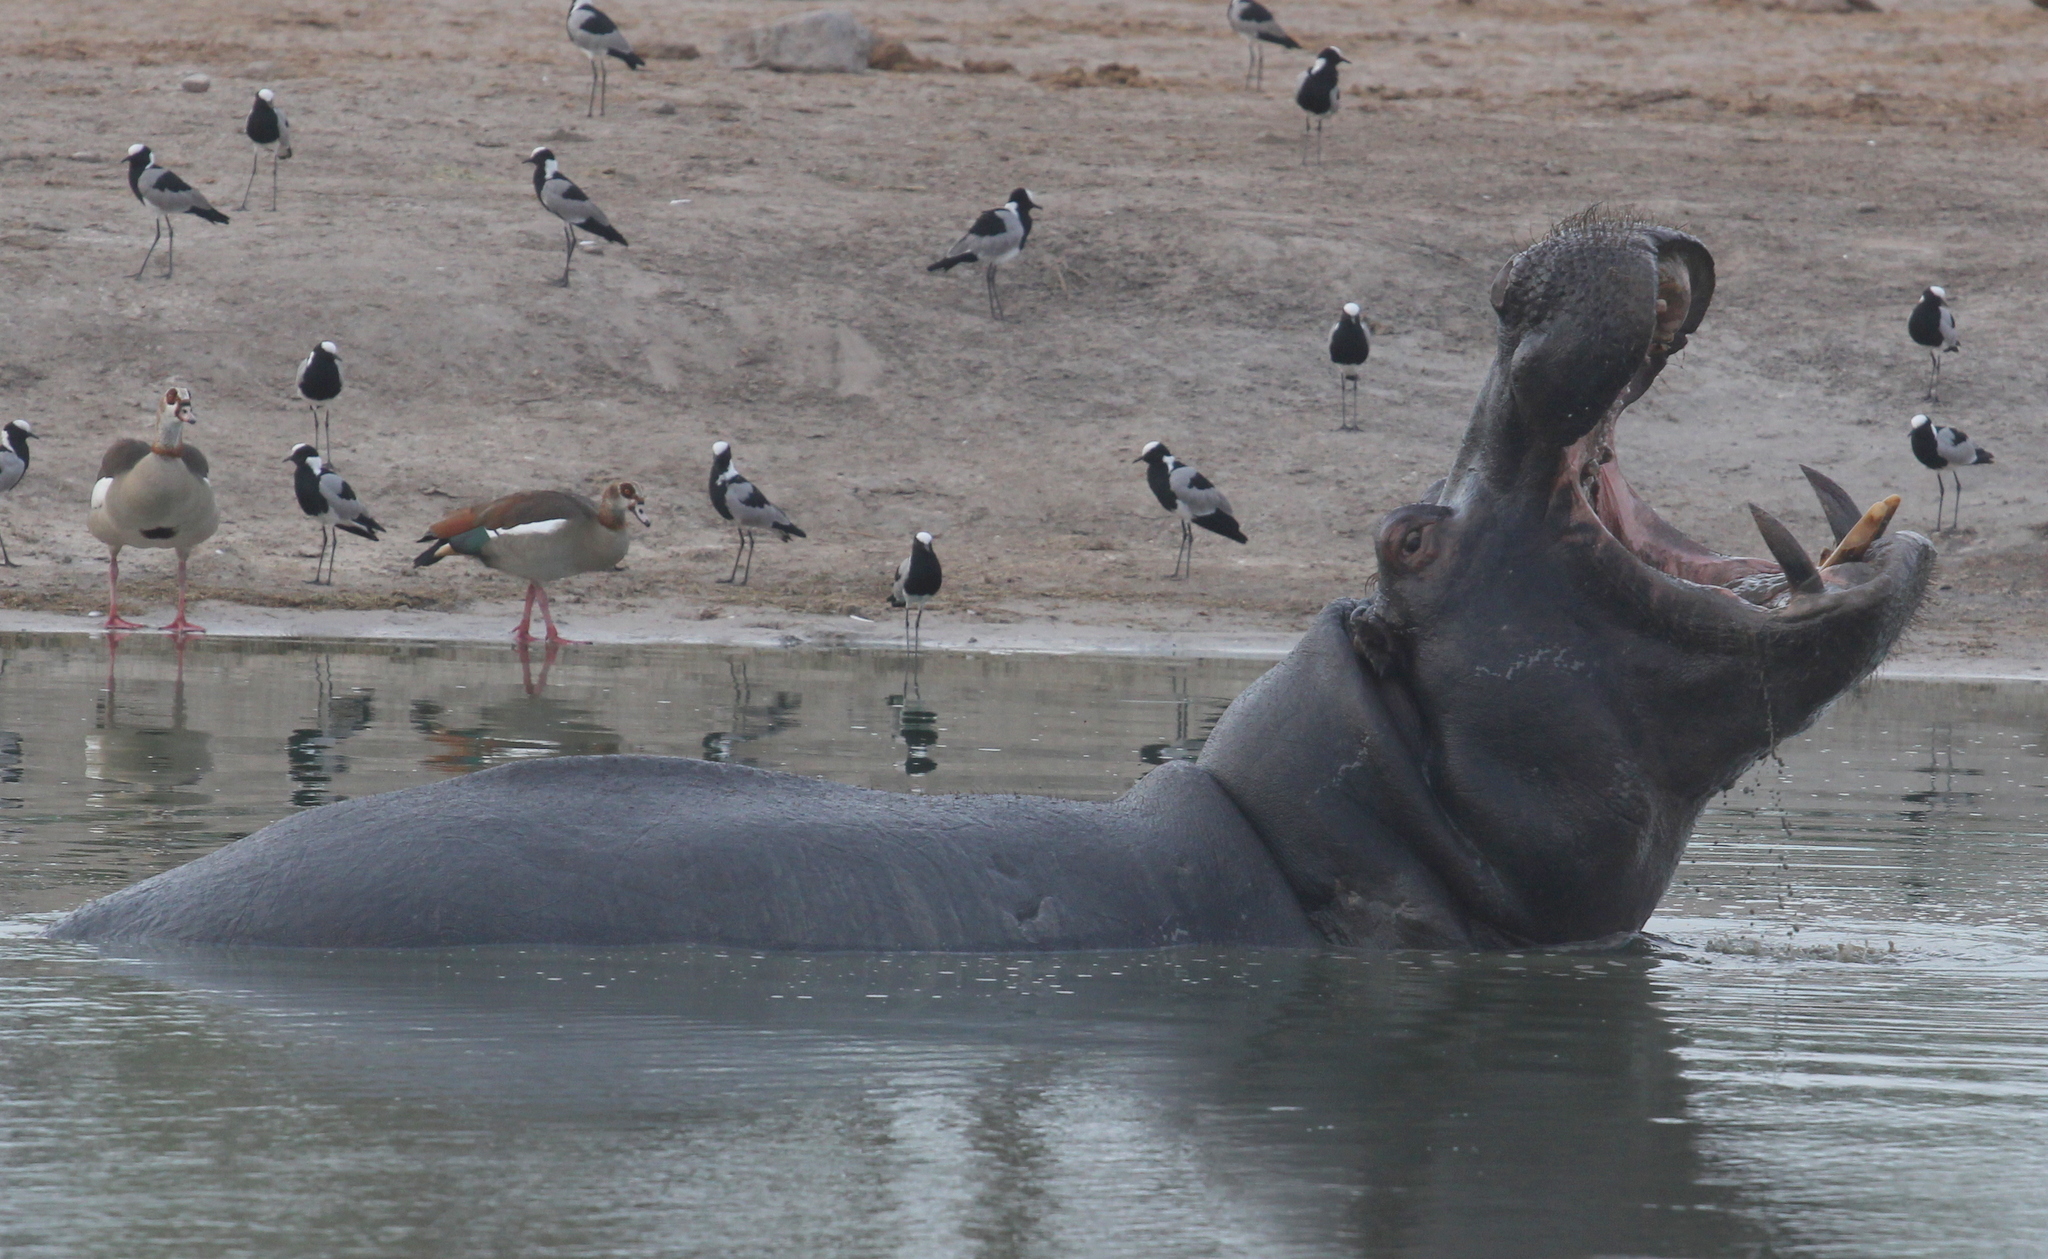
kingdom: Animalia
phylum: Chordata
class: Mammalia
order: Artiodactyla
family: Hippopotamidae
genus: Hippopotamus
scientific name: Hippopotamus amphibius
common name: Common hippopotamus
